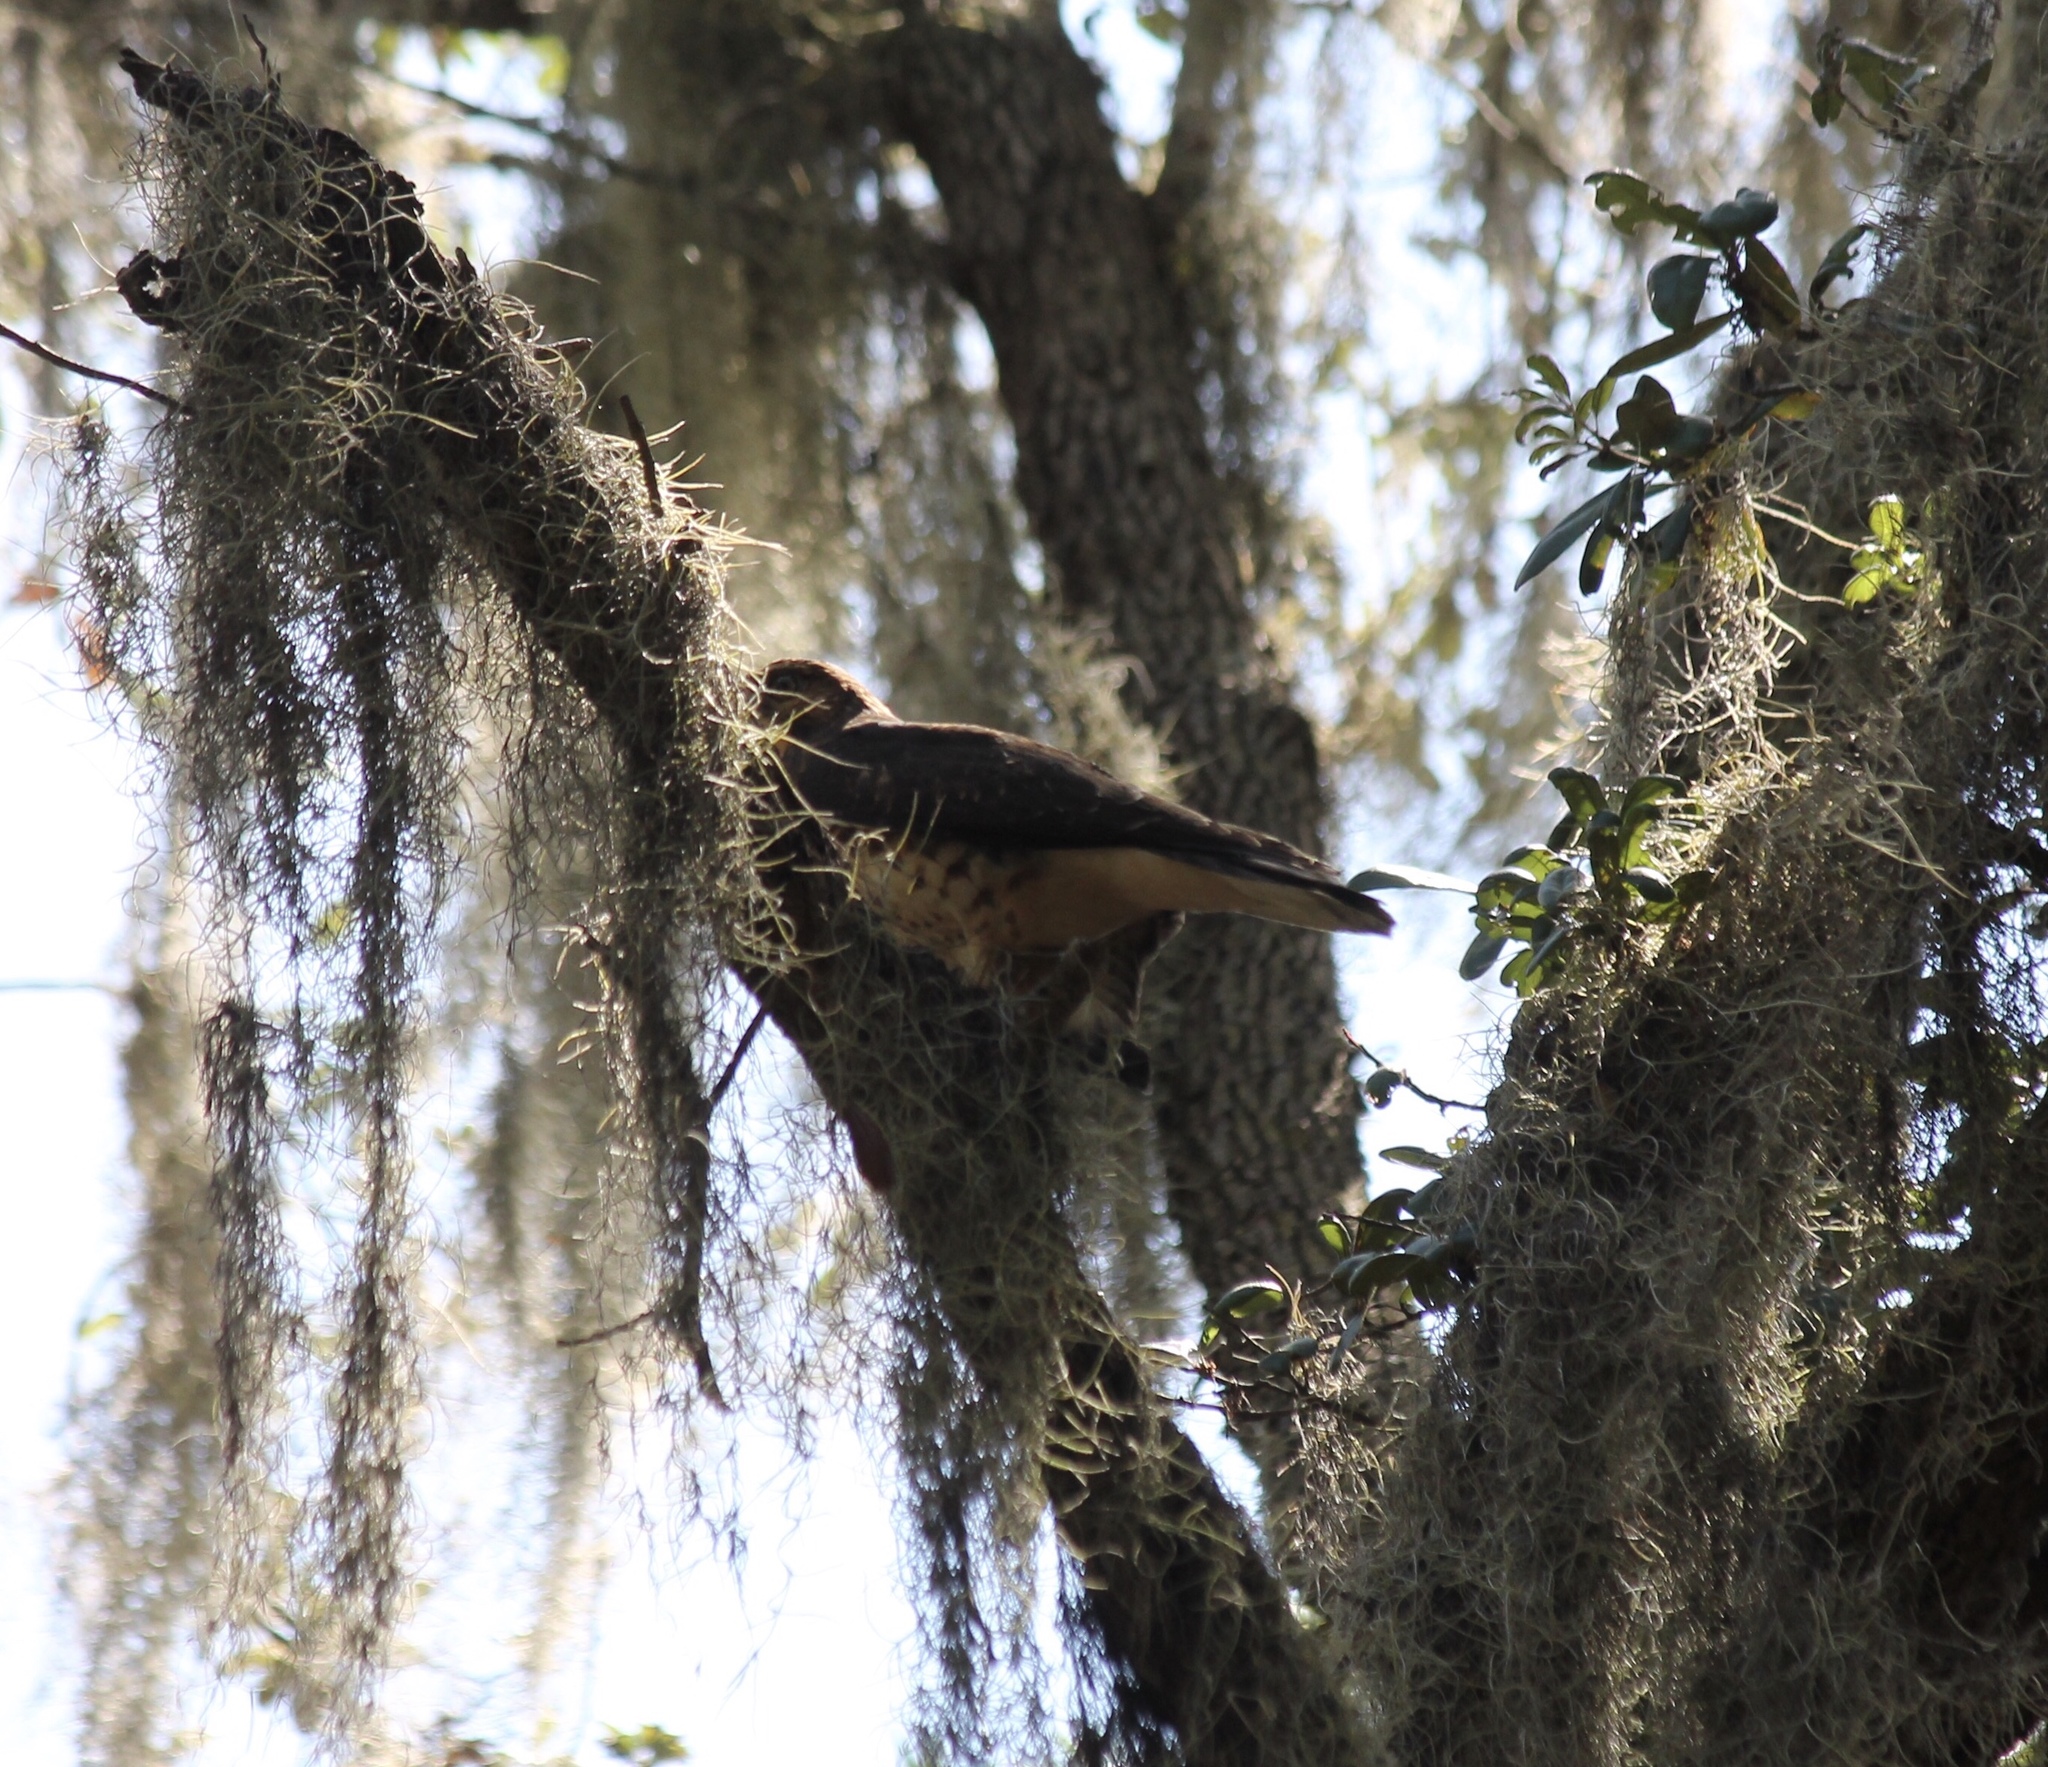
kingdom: Animalia
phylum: Chordata
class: Aves
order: Accipitriformes
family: Accipitridae
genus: Buteo
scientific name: Buteo platypterus
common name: Broad-winged hawk
